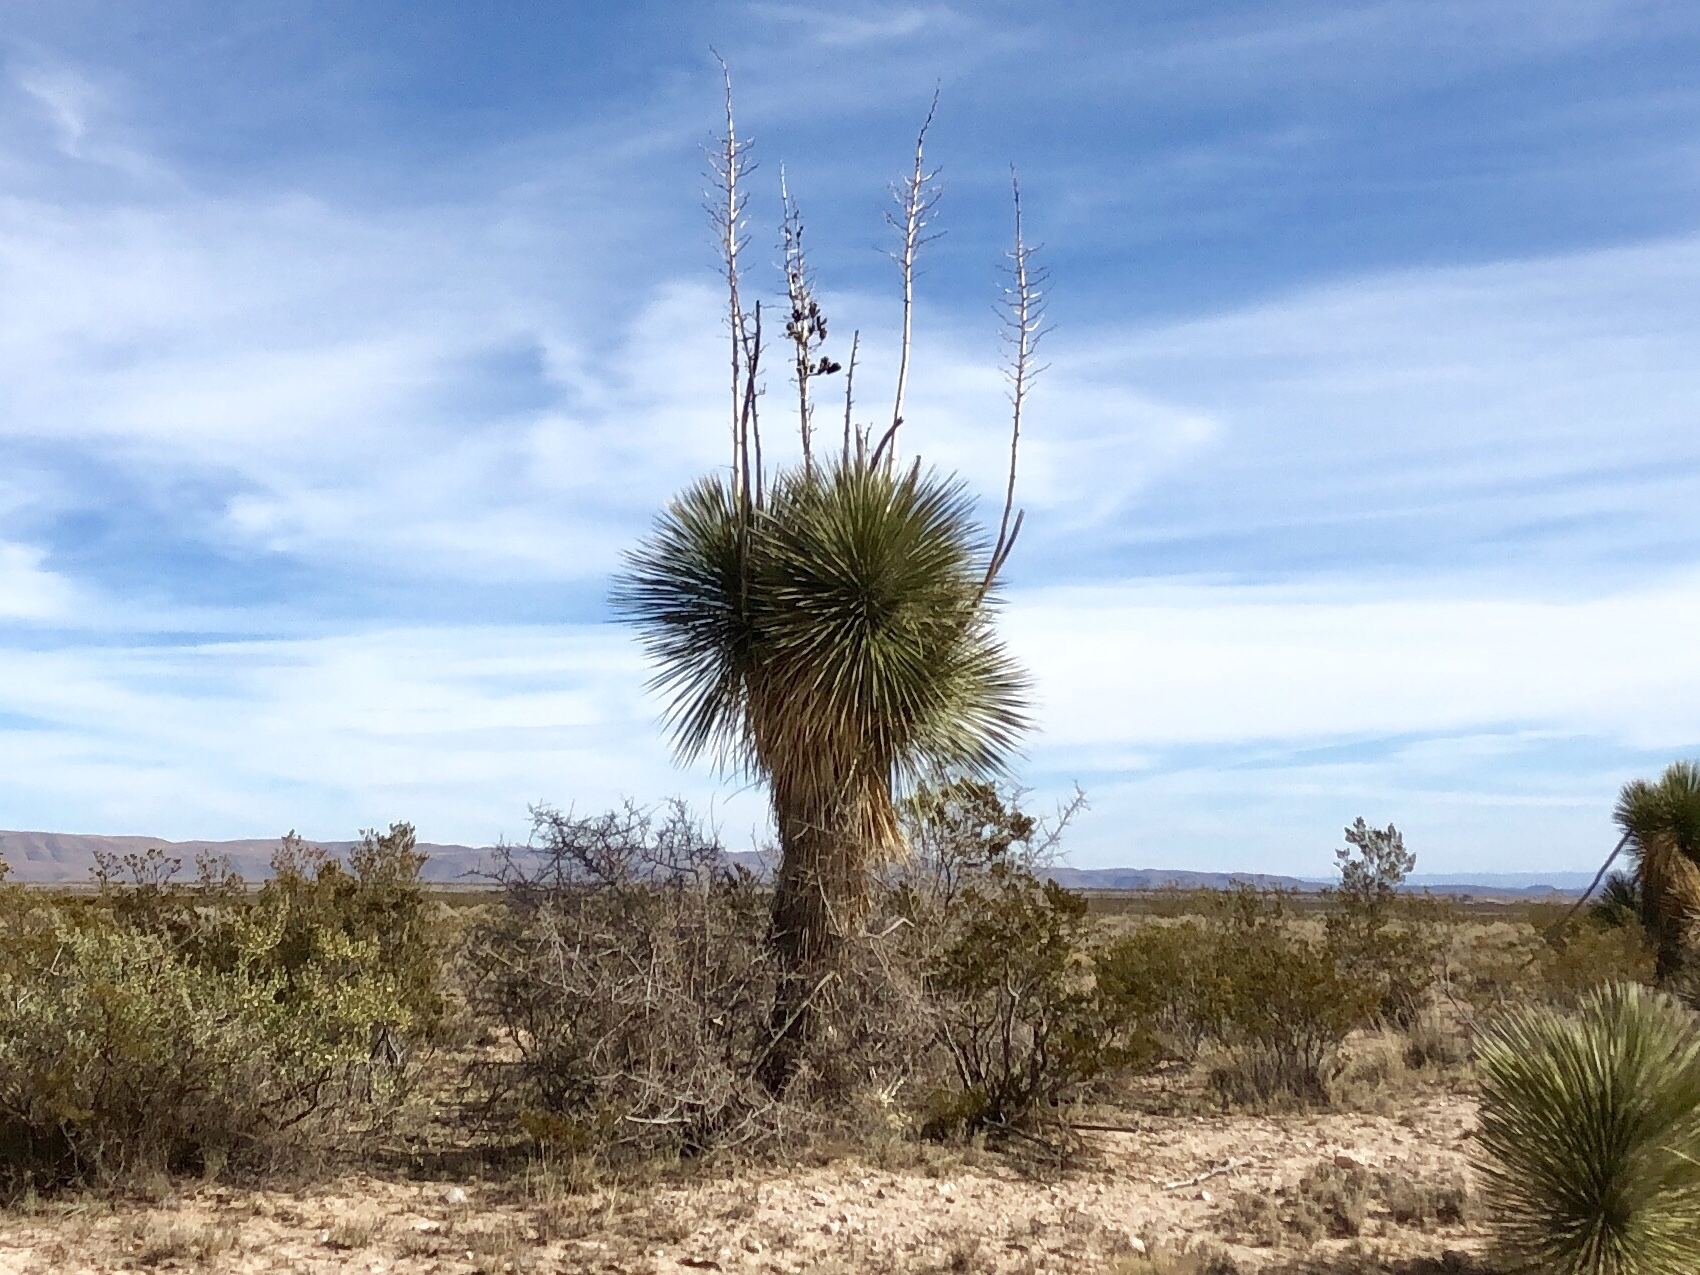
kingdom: Plantae
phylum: Tracheophyta
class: Liliopsida
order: Asparagales
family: Asparagaceae
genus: Yucca
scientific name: Yucca elata
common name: Palmella
